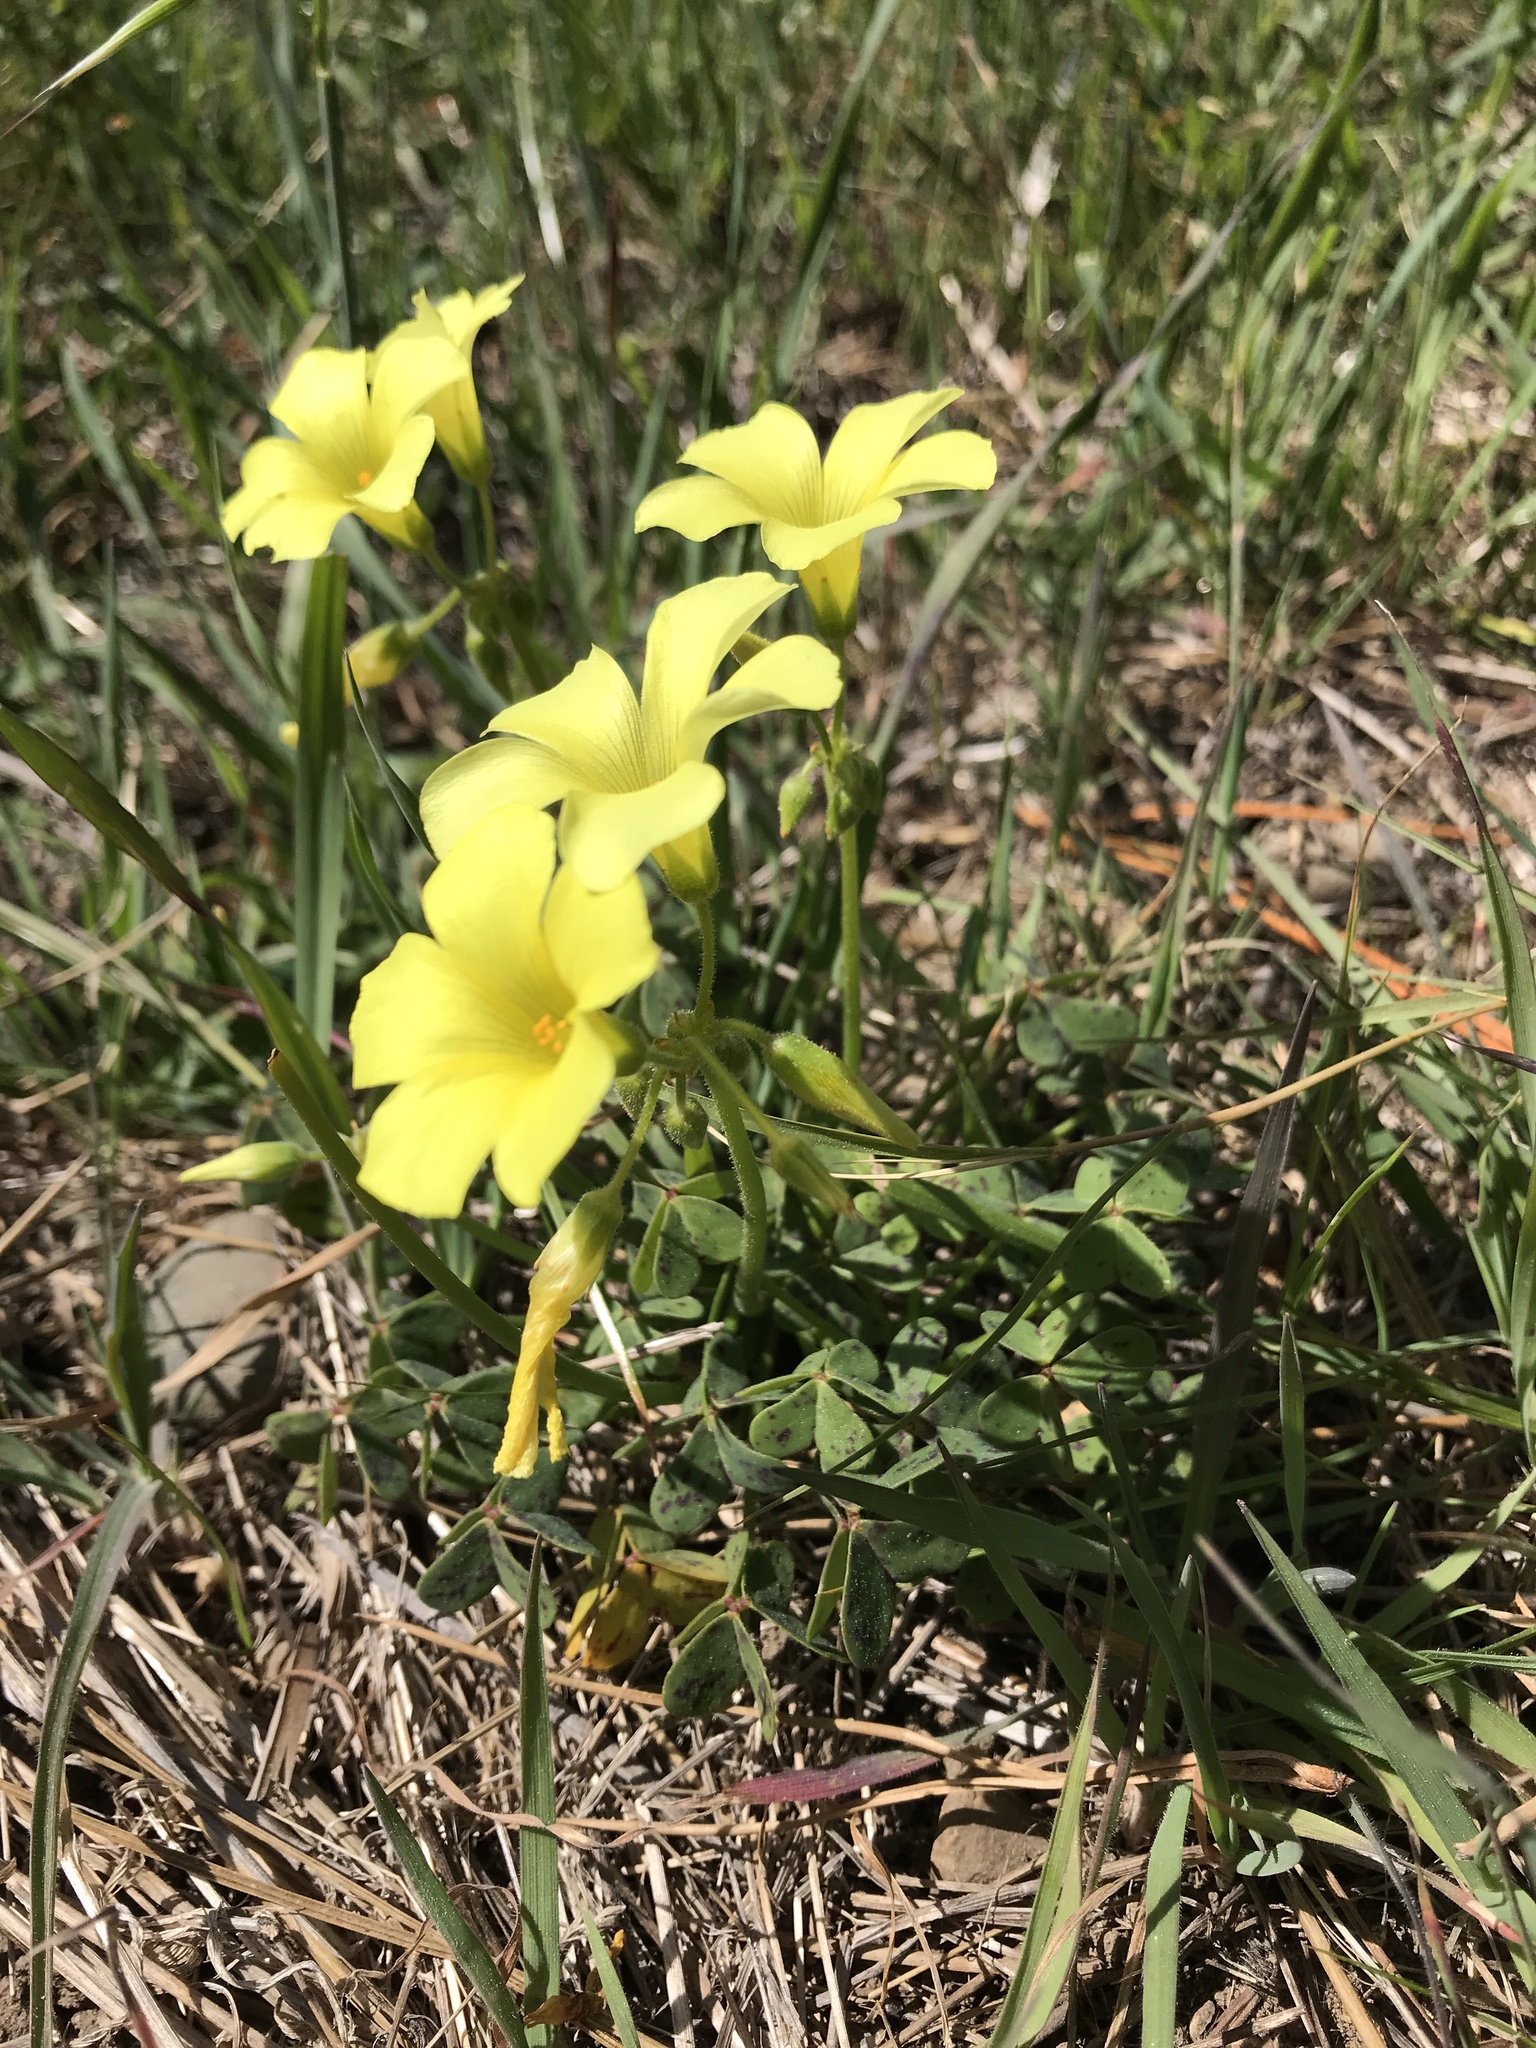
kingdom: Plantae
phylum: Tracheophyta
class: Magnoliopsida
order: Oxalidales
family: Oxalidaceae
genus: Oxalis
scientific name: Oxalis pes-caprae
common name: Bermuda-buttercup
